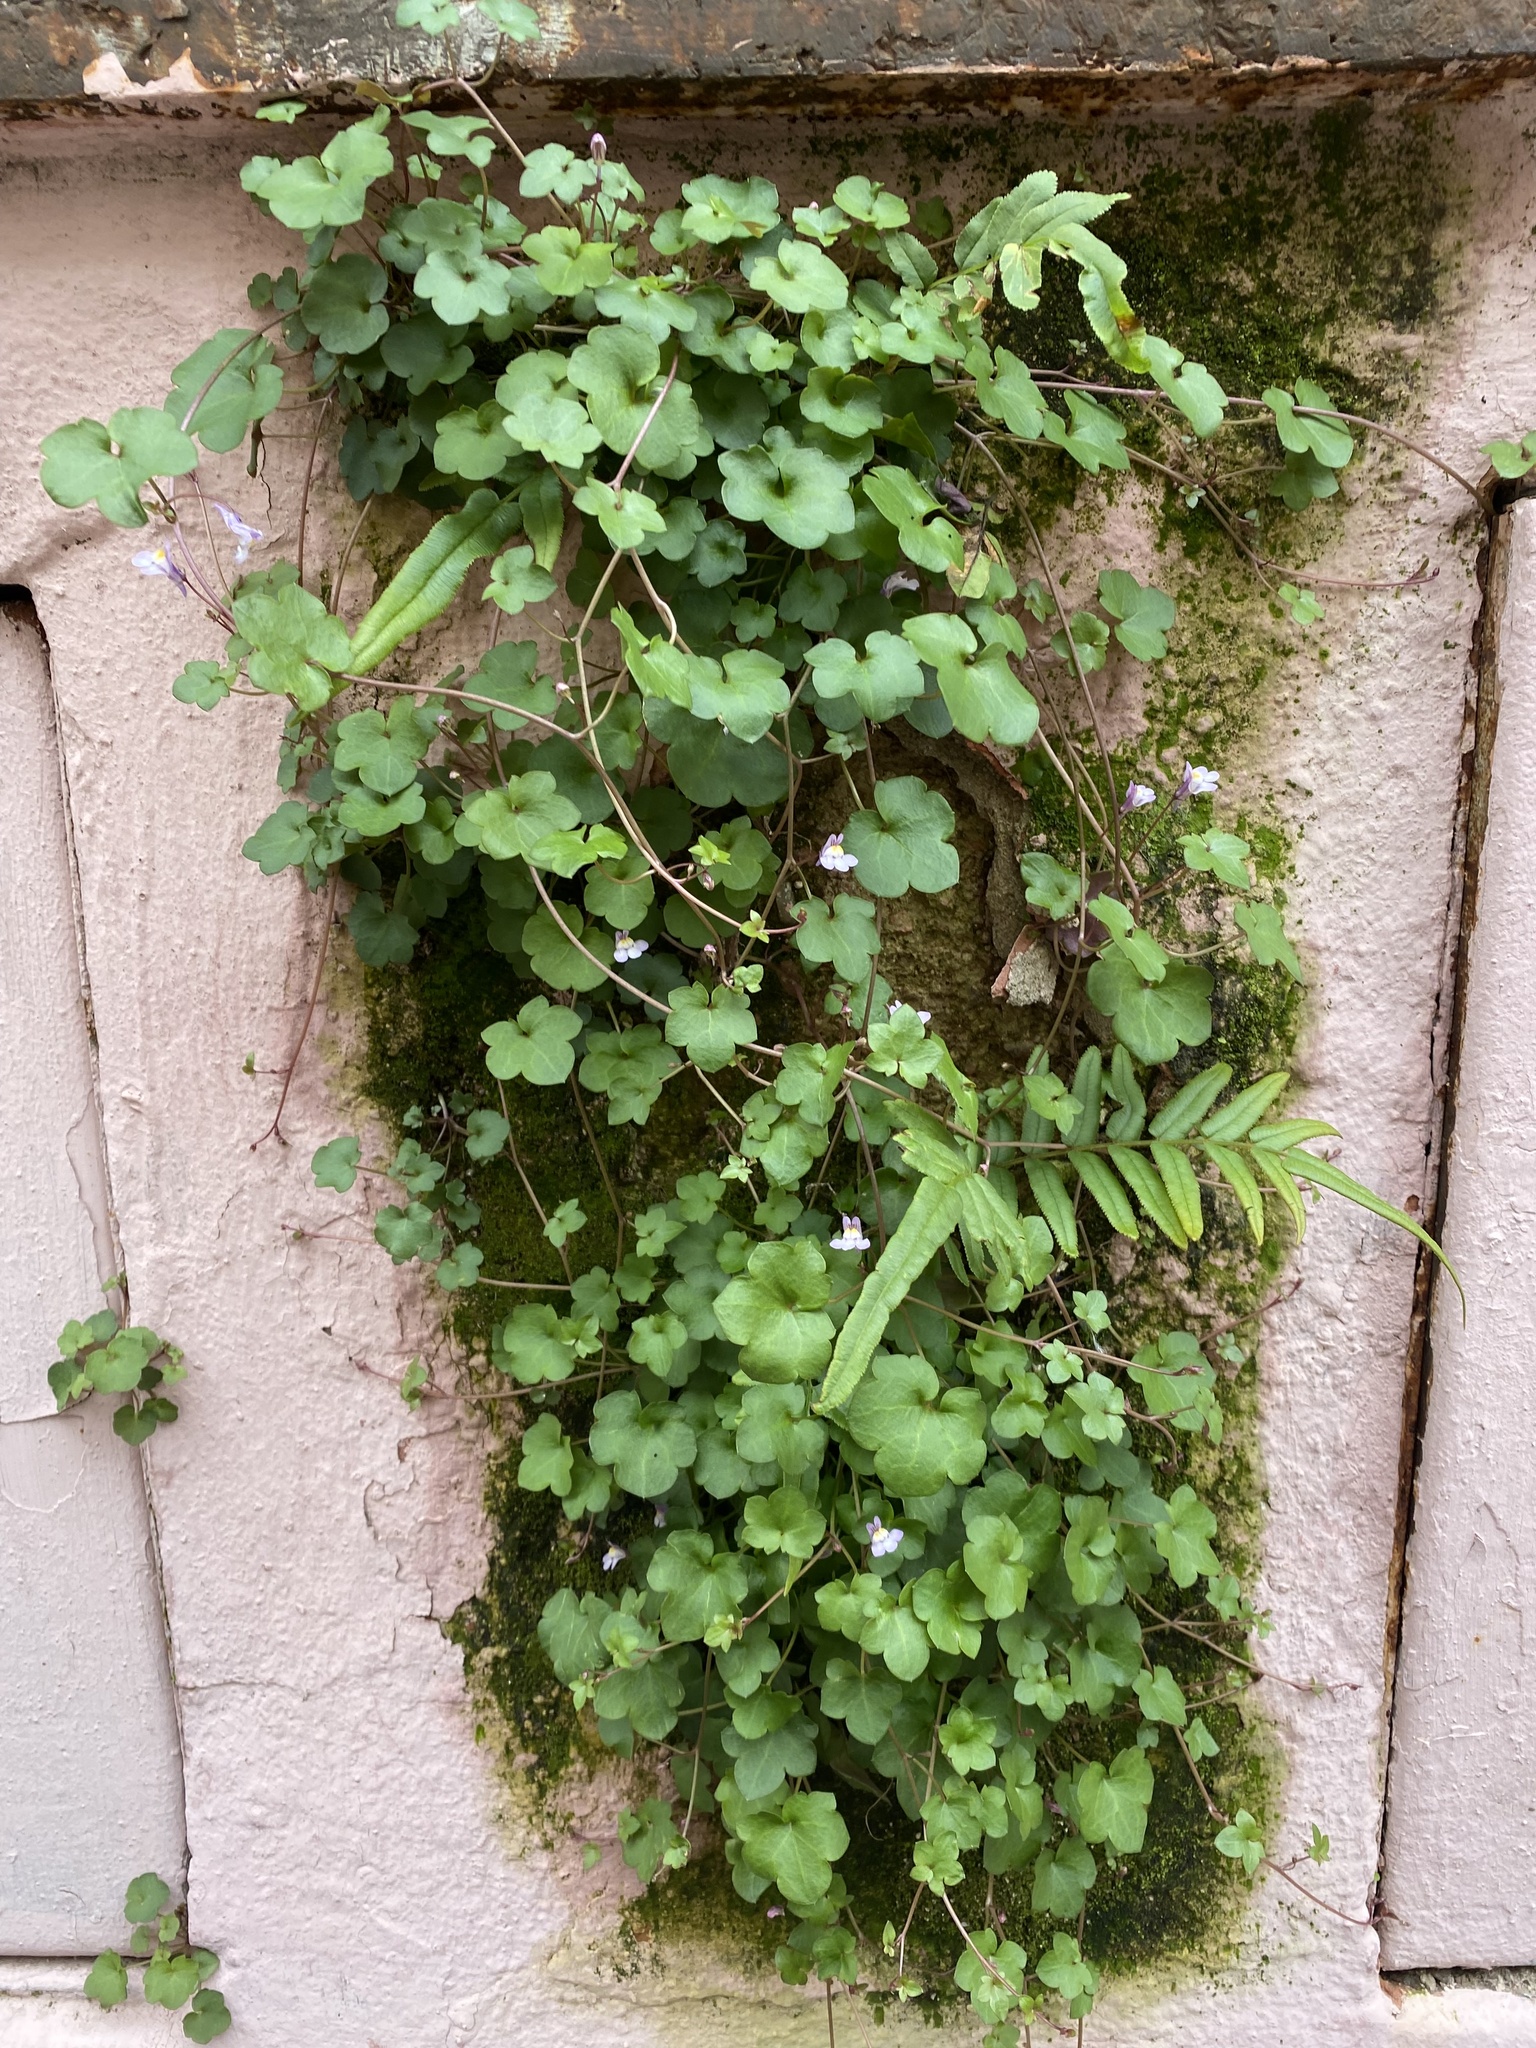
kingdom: Plantae
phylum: Tracheophyta
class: Magnoliopsida
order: Lamiales
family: Plantaginaceae
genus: Cymbalaria
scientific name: Cymbalaria muralis
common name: Ivy-leaved toadflax
